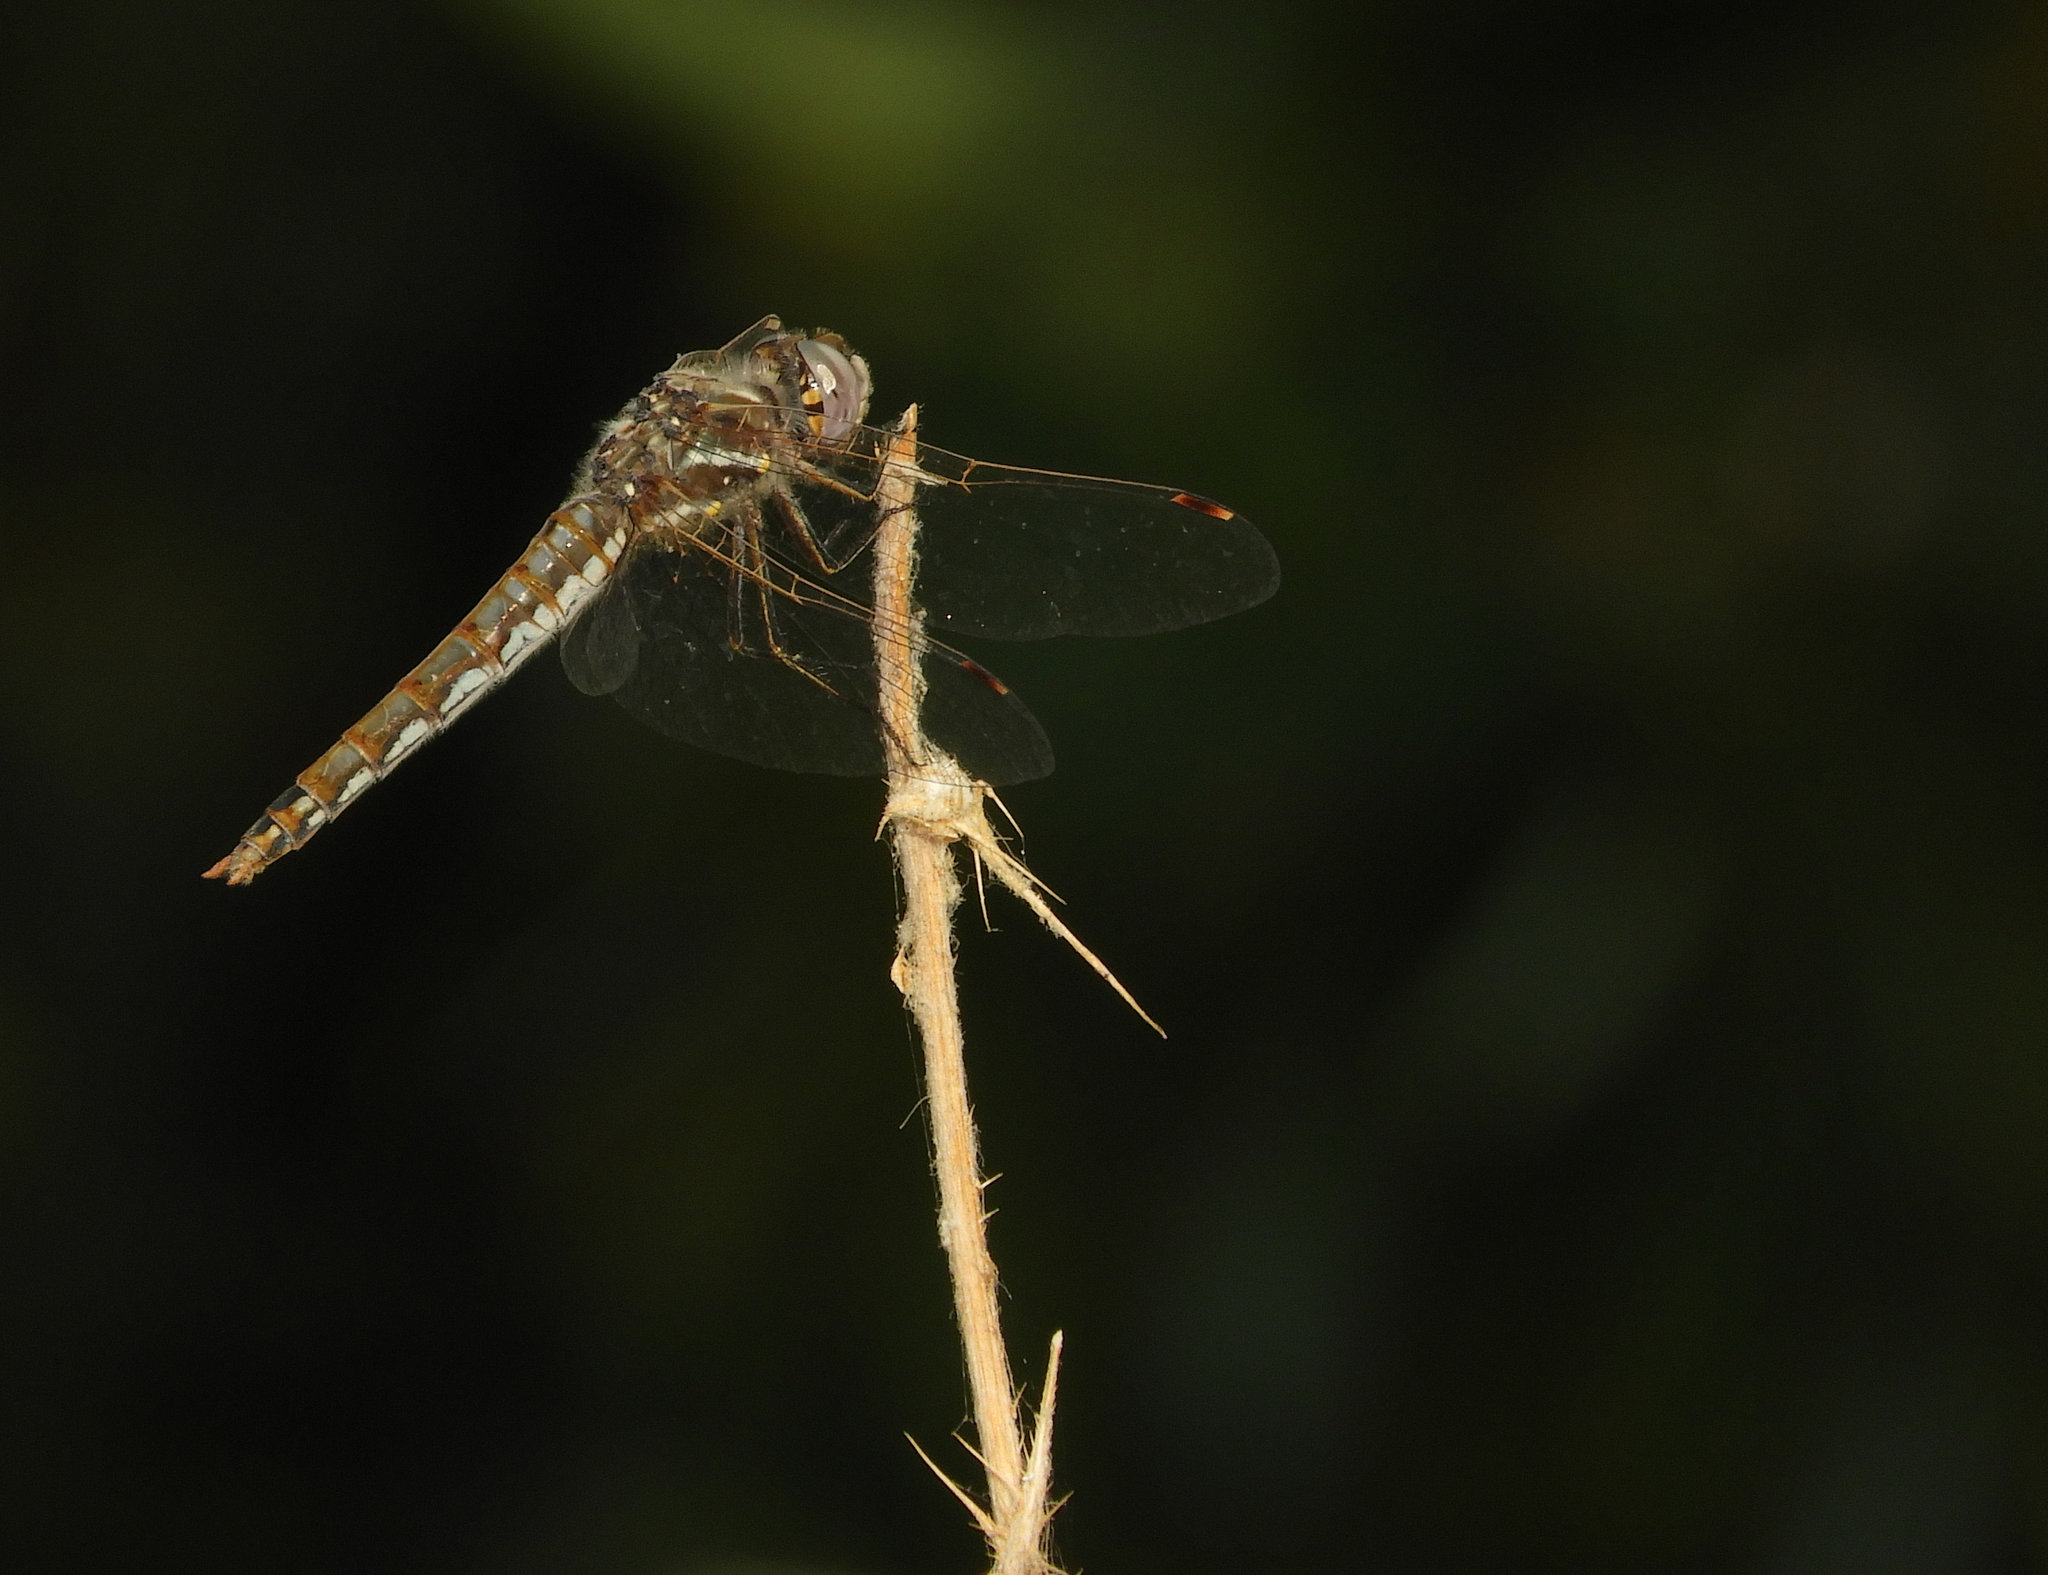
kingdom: Animalia
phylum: Arthropoda
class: Insecta
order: Odonata
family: Libellulidae
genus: Sympetrum
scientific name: Sympetrum corruptum
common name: Variegated meadowhawk
